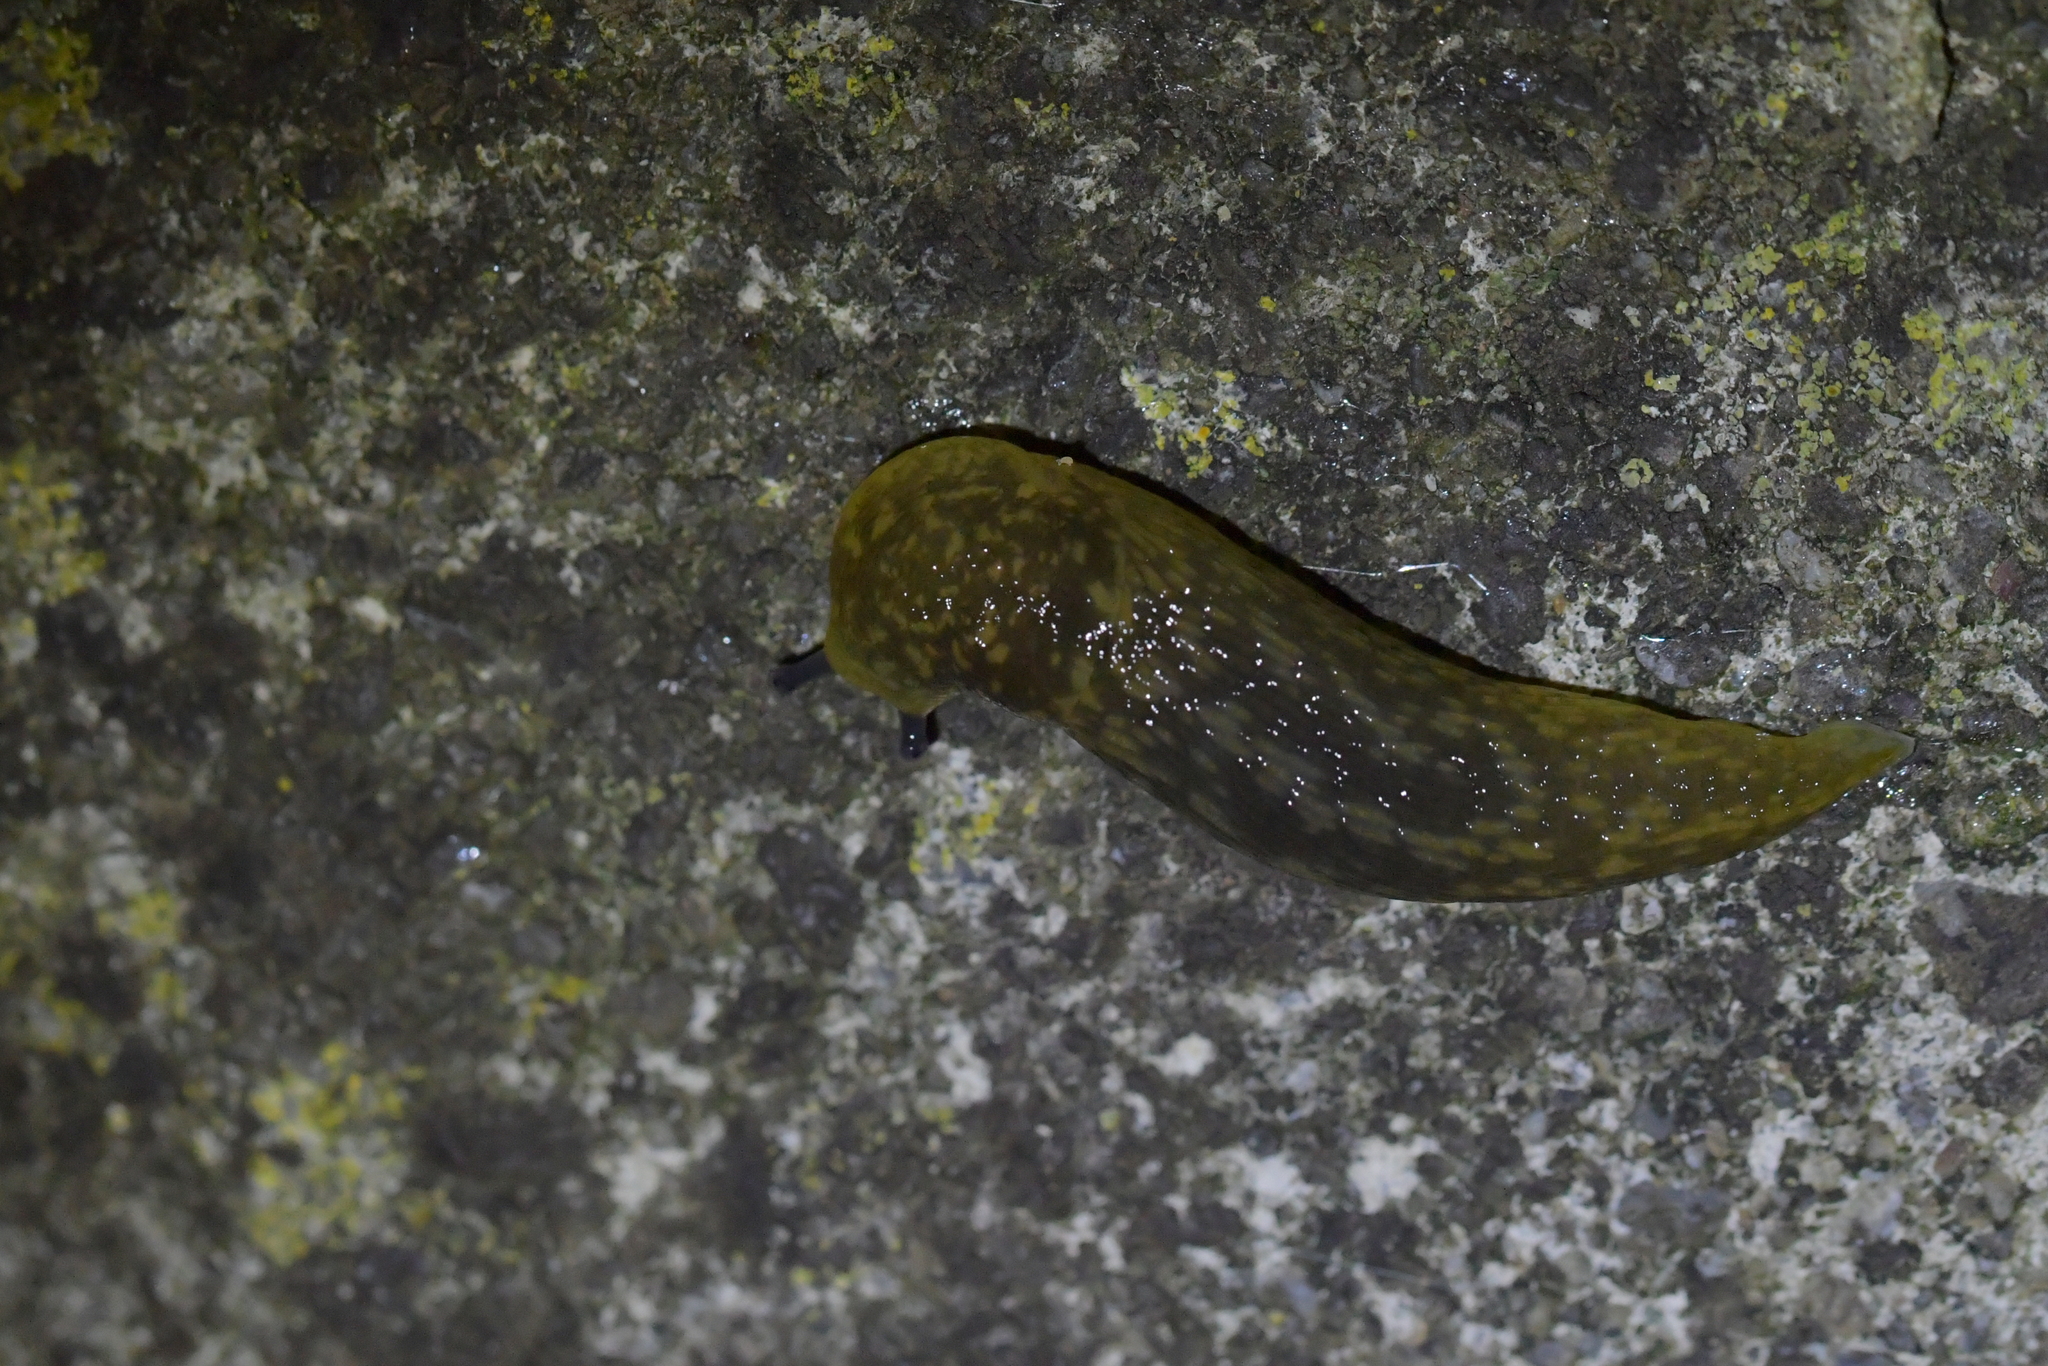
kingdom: Animalia
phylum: Mollusca
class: Gastropoda
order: Stylommatophora
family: Limacidae
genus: Limacus
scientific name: Limacus flavus
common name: Yellow gardenslug
